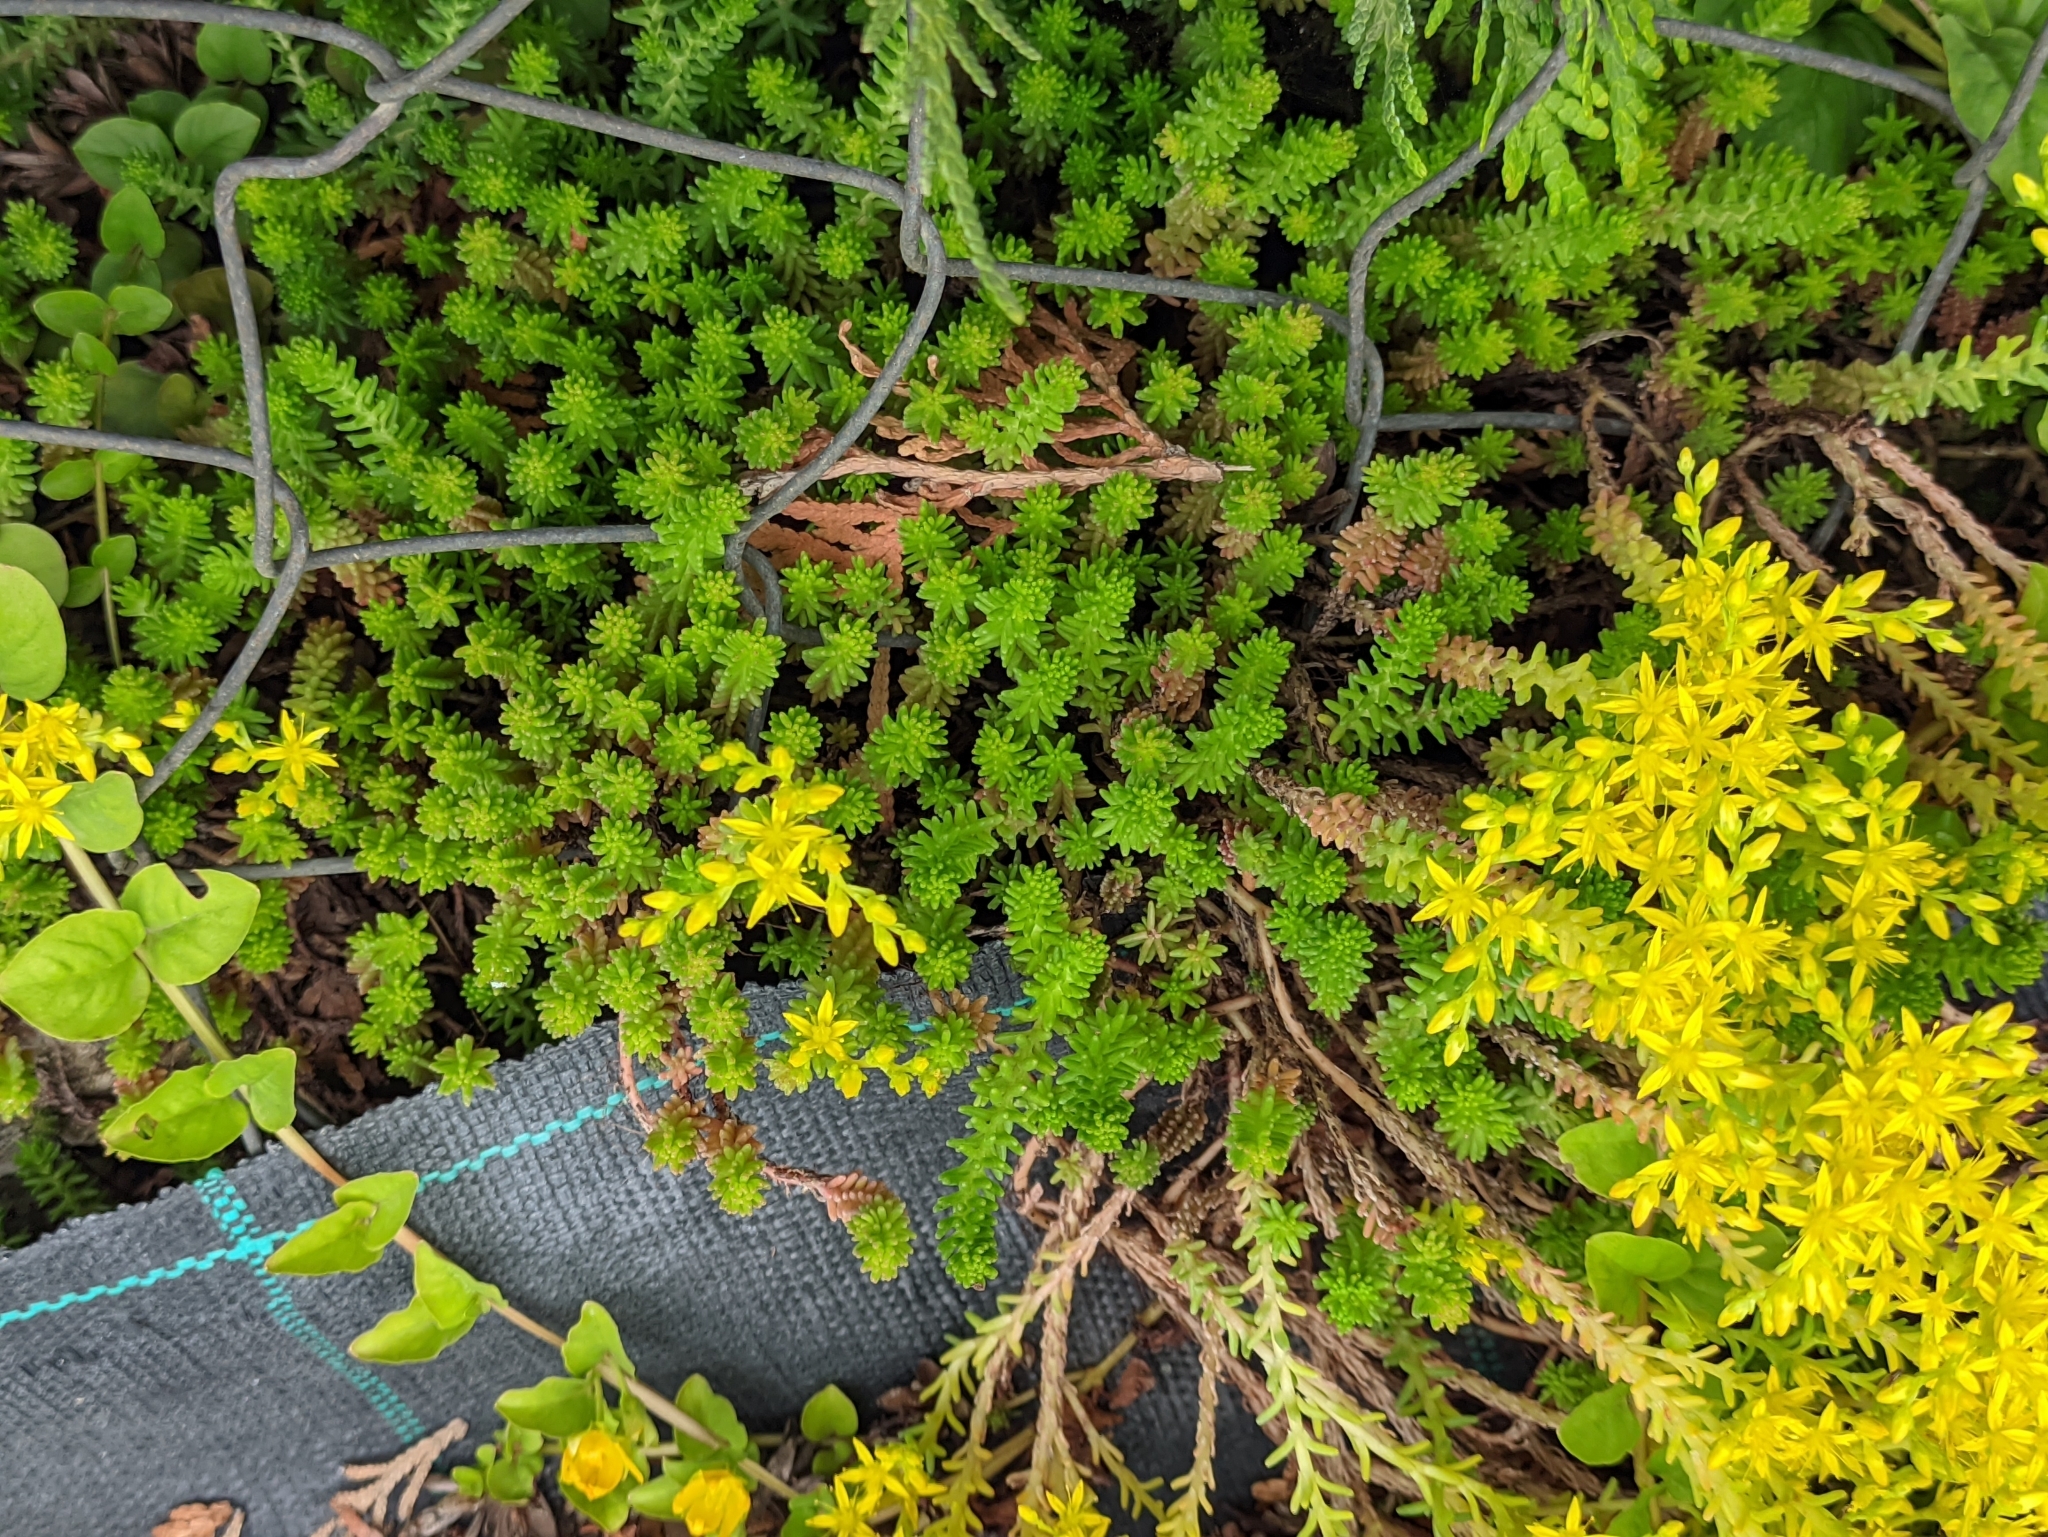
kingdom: Plantae
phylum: Tracheophyta
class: Magnoliopsida
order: Saxifragales
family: Crassulaceae
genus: Sedum
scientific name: Sedum sexangulare
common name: Tasteless stonecrop
